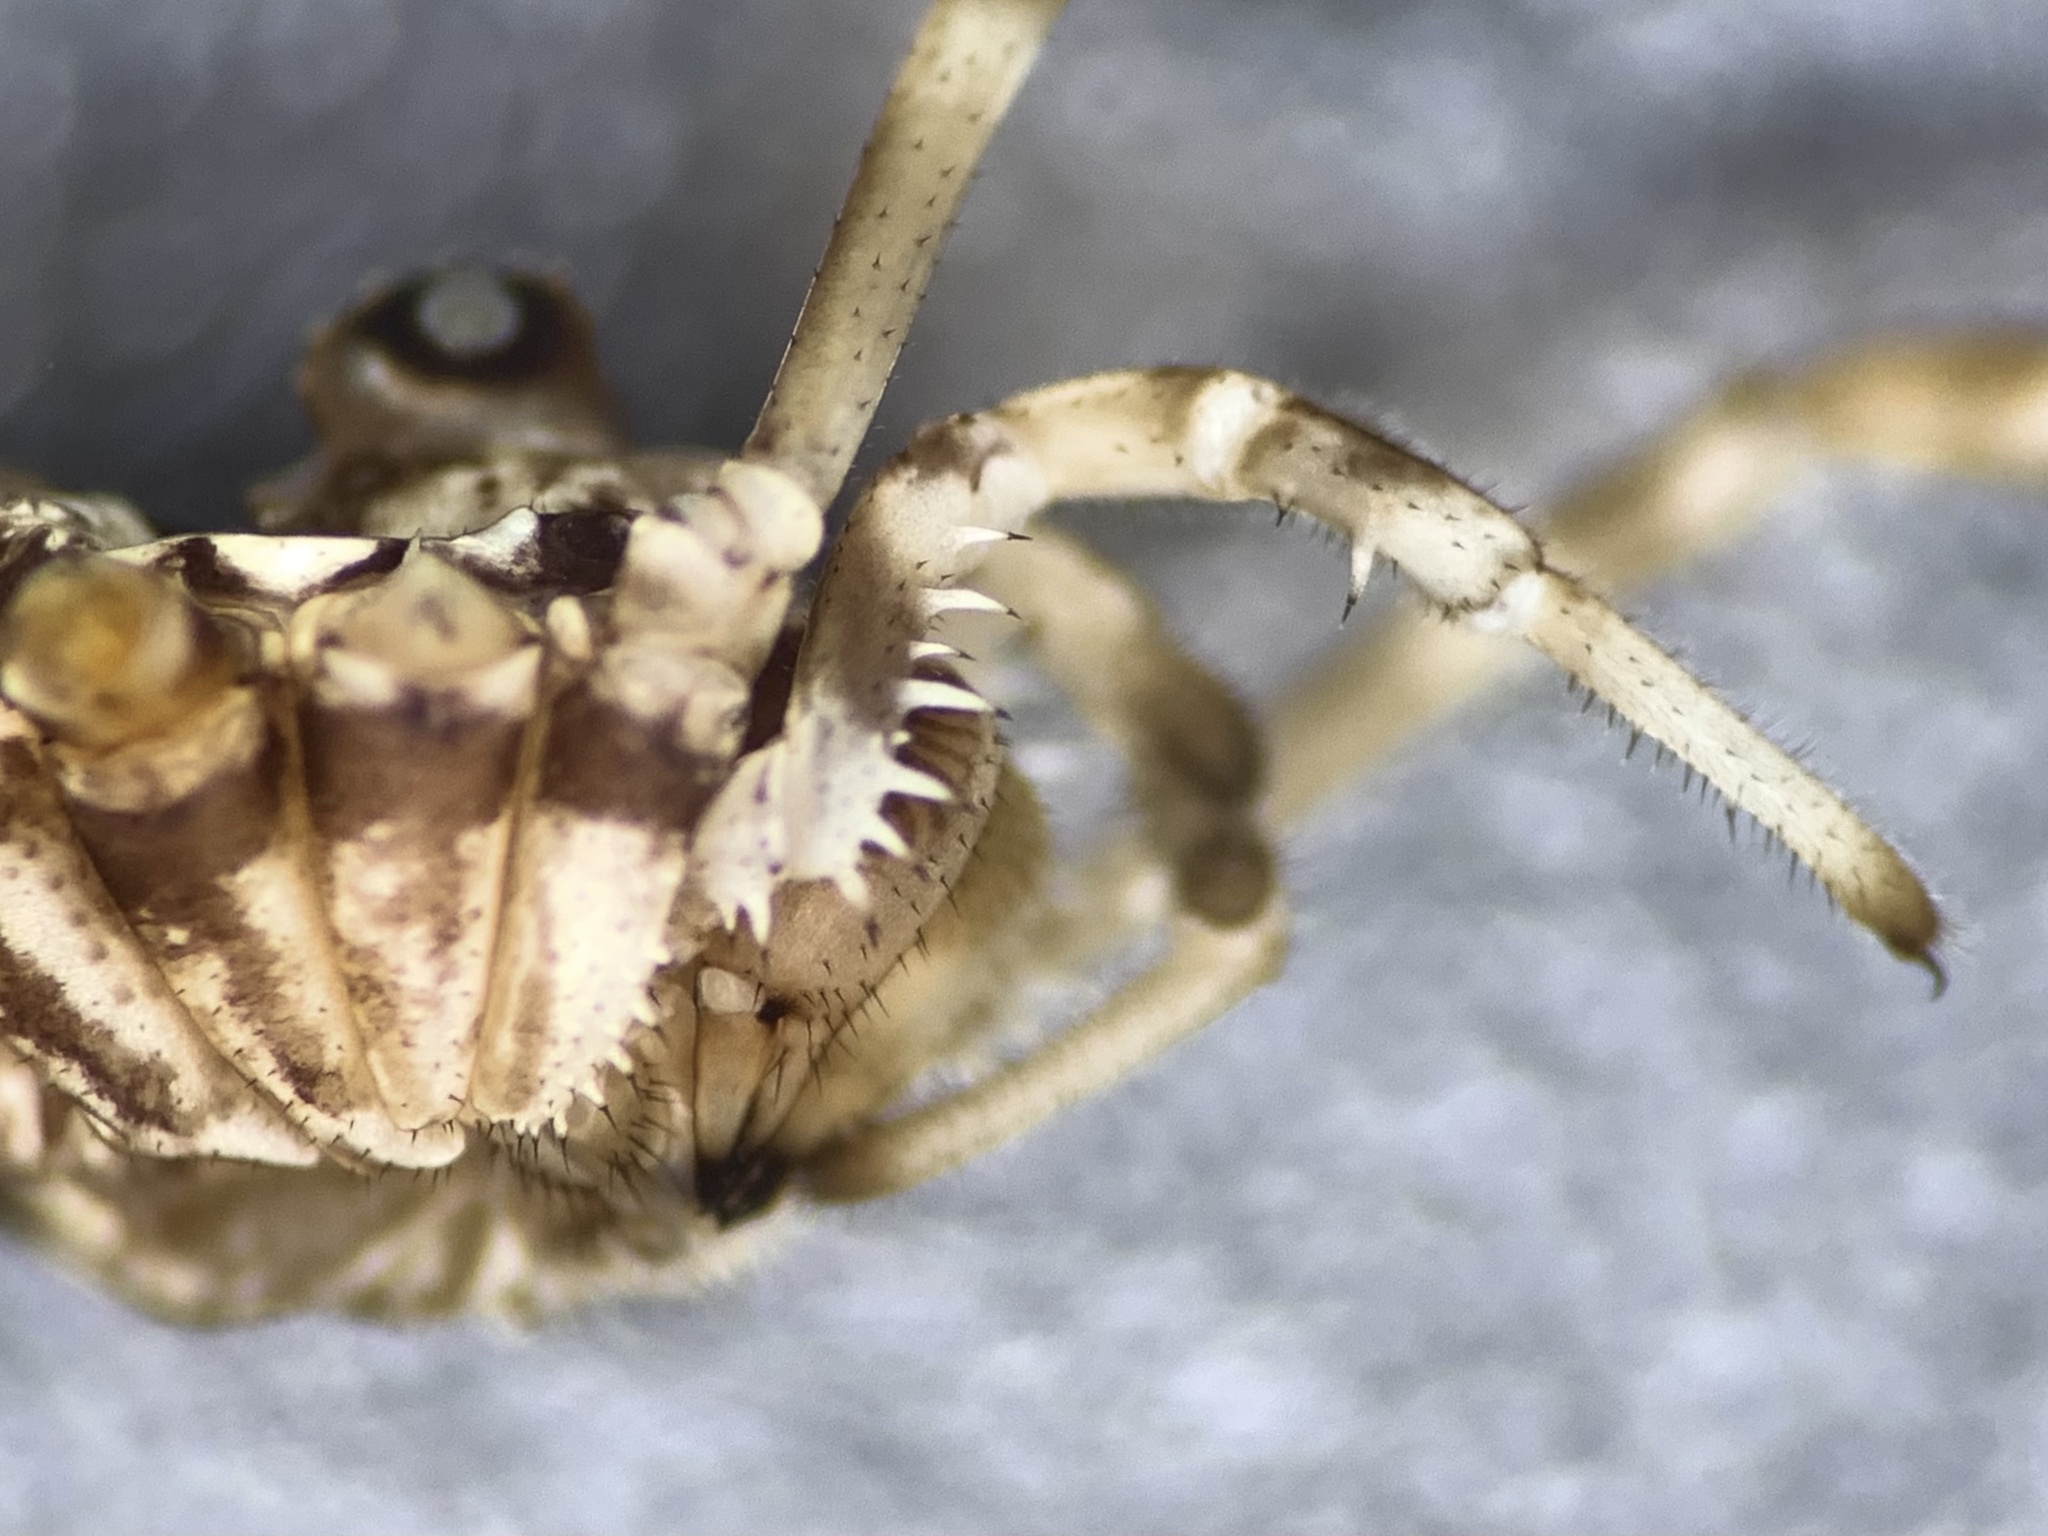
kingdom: Animalia
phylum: Arthropoda
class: Arachnida
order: Opiliones
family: Phalangiidae
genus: Platybunus
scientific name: Platybunus pinetorum
